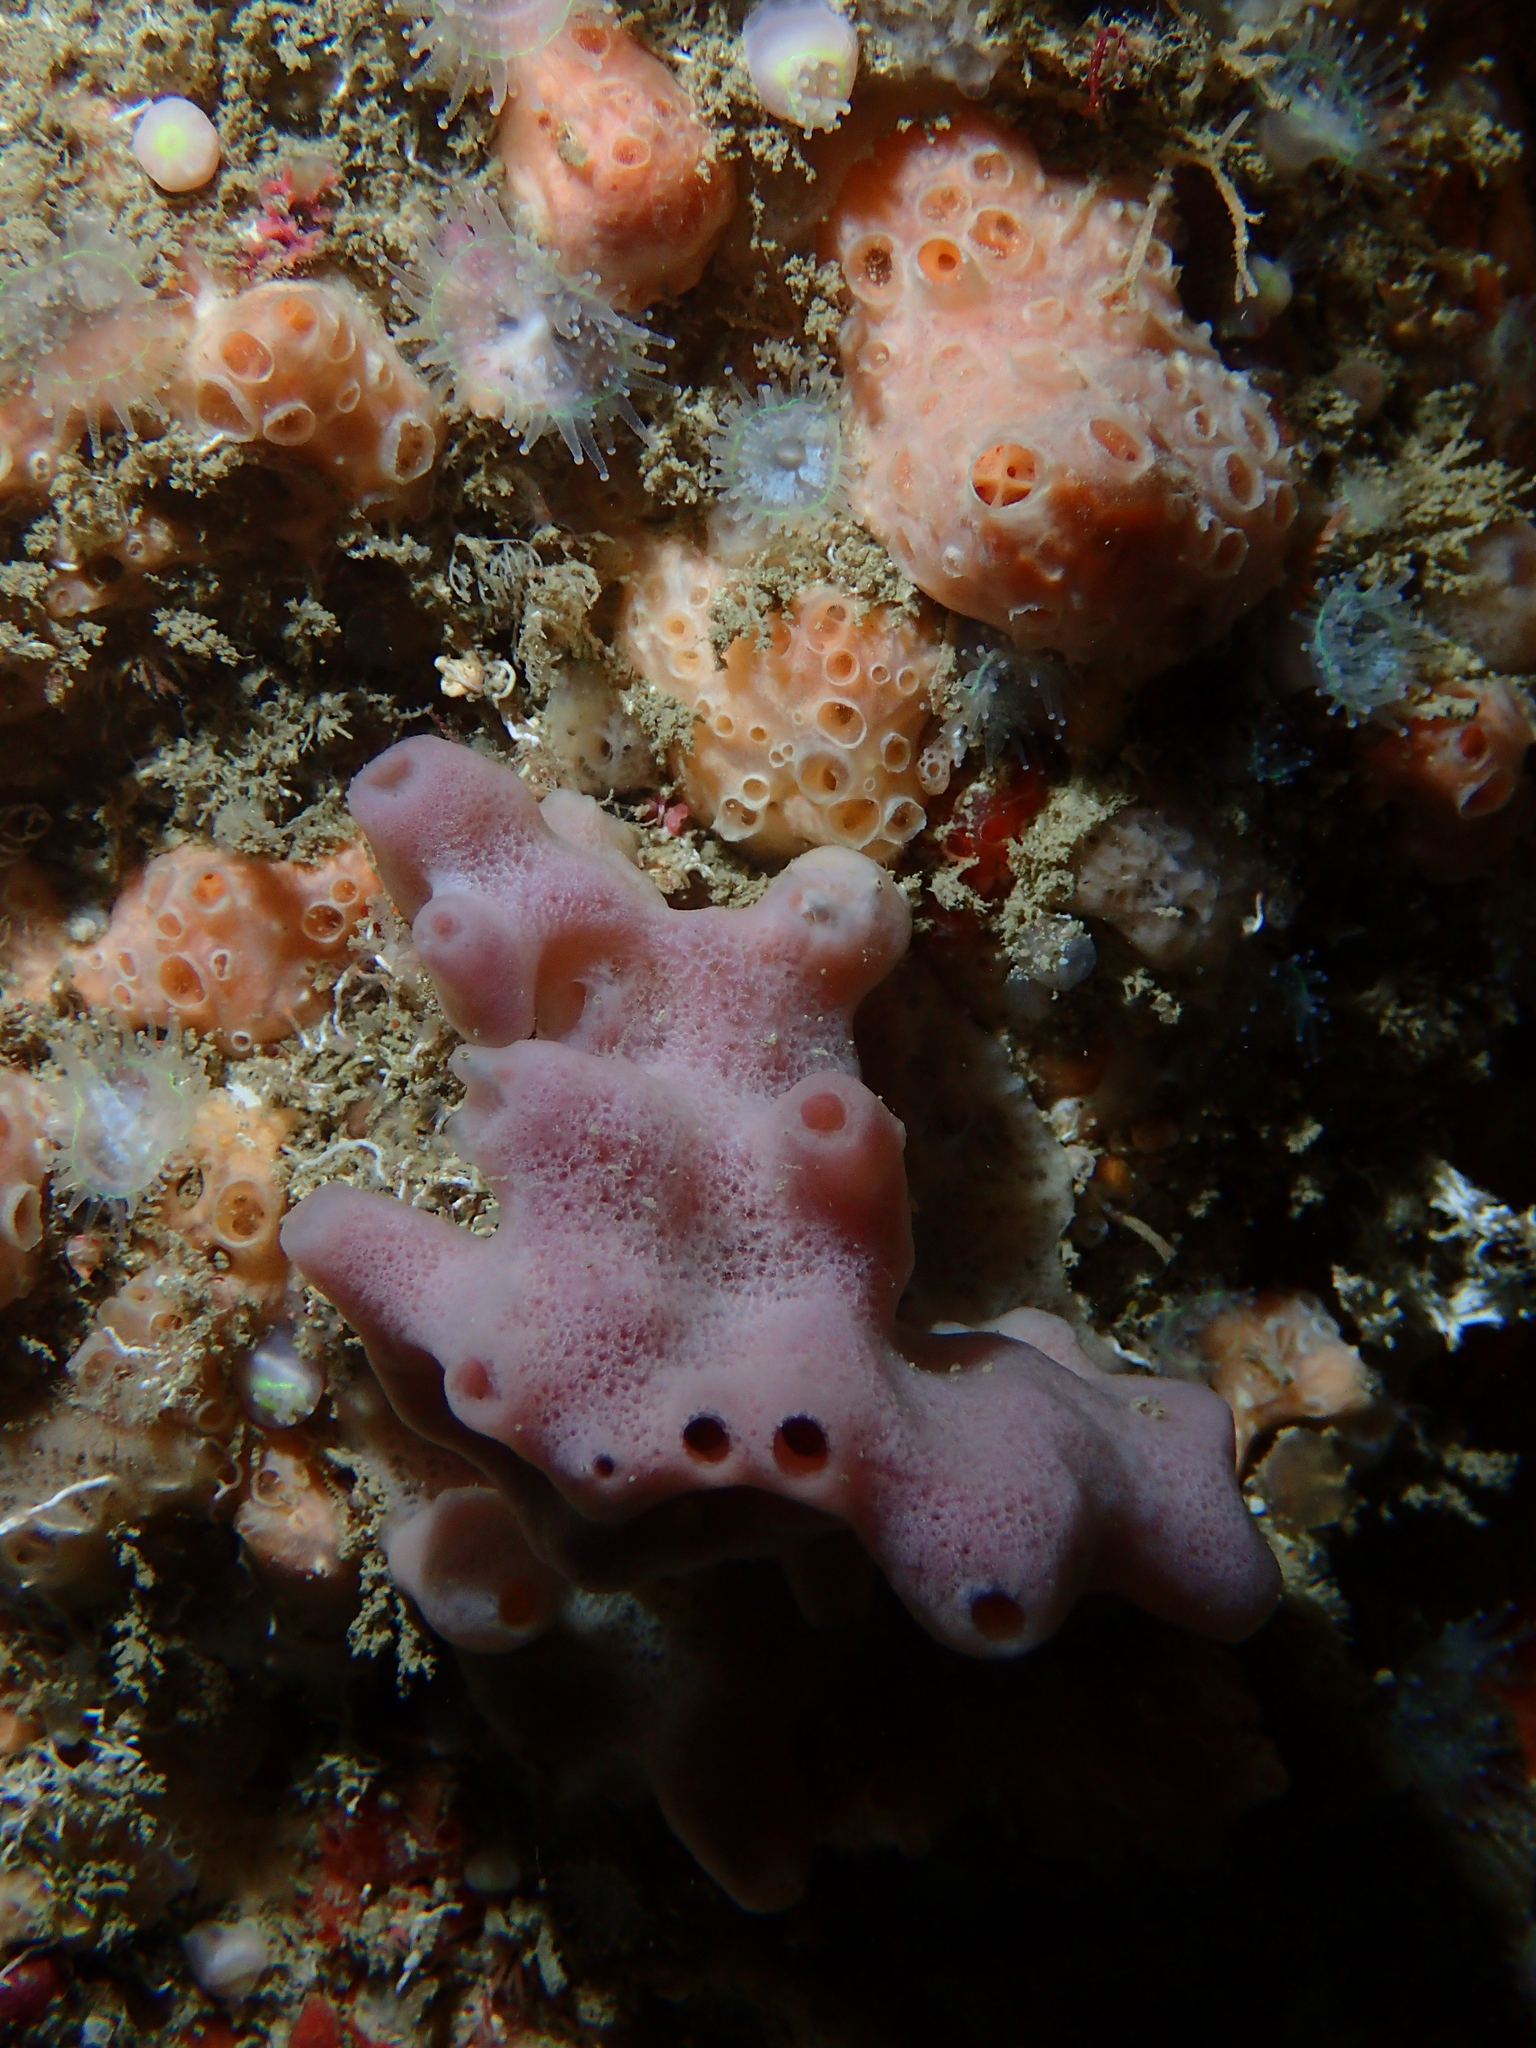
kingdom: Animalia
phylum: Porifera
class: Demospongiae
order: Haplosclerida
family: Chalinidae
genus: Haliclona
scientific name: Haliclona viscosa
